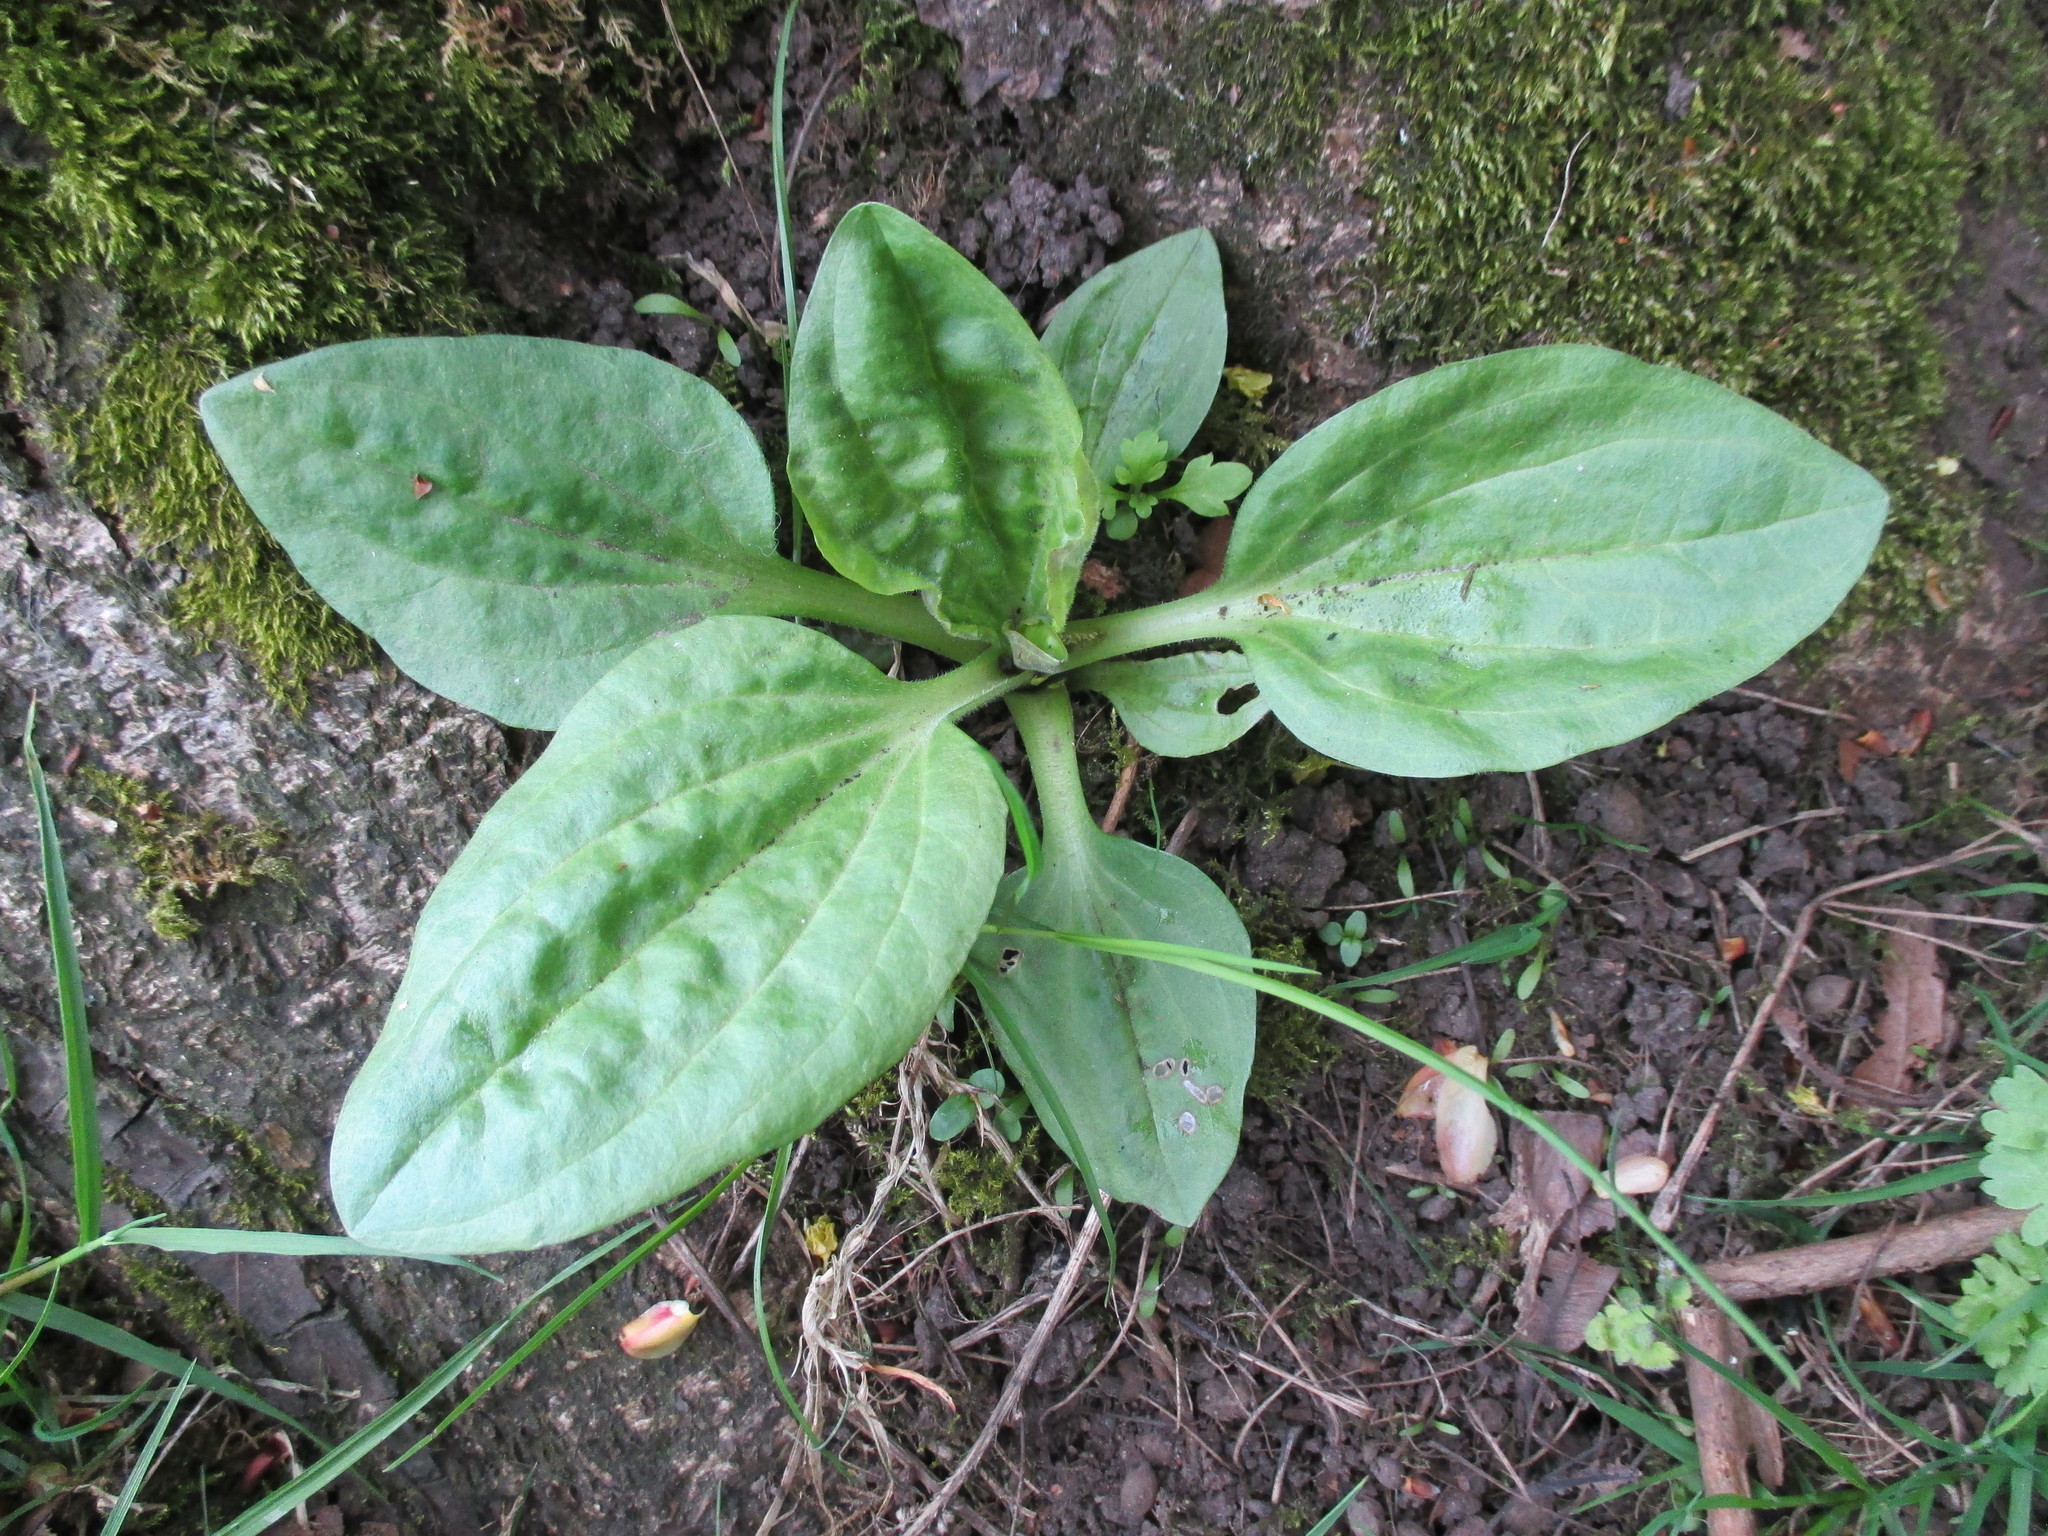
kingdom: Plantae
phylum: Tracheophyta
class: Magnoliopsida
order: Lamiales
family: Plantaginaceae
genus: Plantago
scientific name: Plantago major
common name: Common plantain
